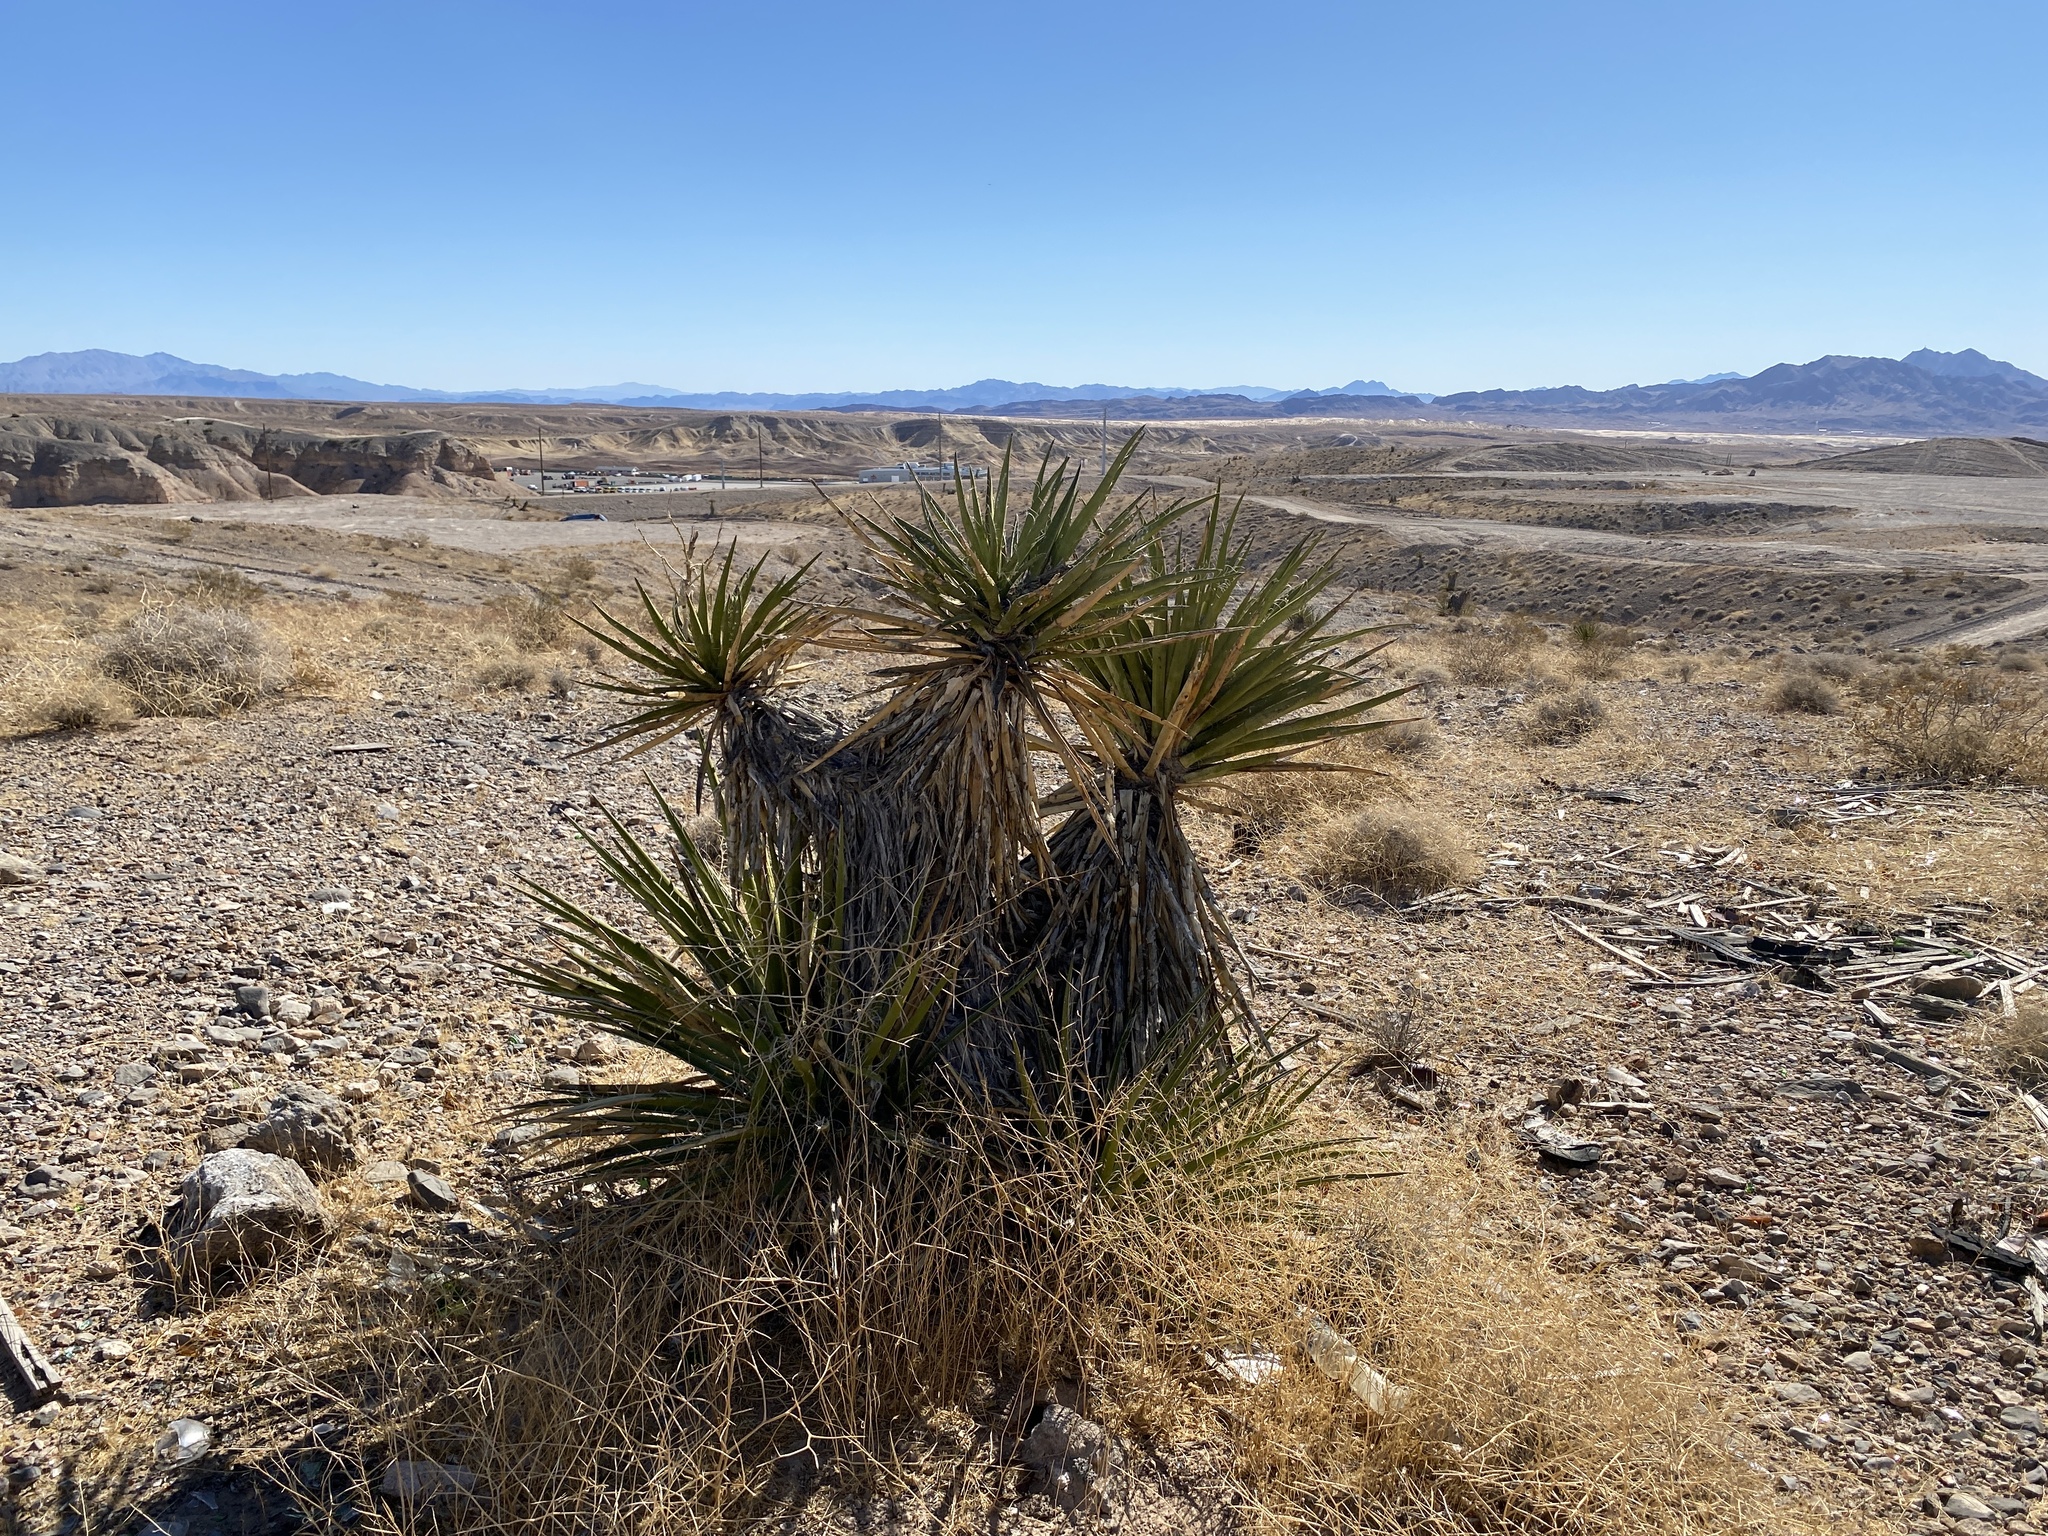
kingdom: Plantae
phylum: Tracheophyta
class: Liliopsida
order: Asparagales
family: Asparagaceae
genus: Yucca
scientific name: Yucca schidigera
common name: Mojave yucca
